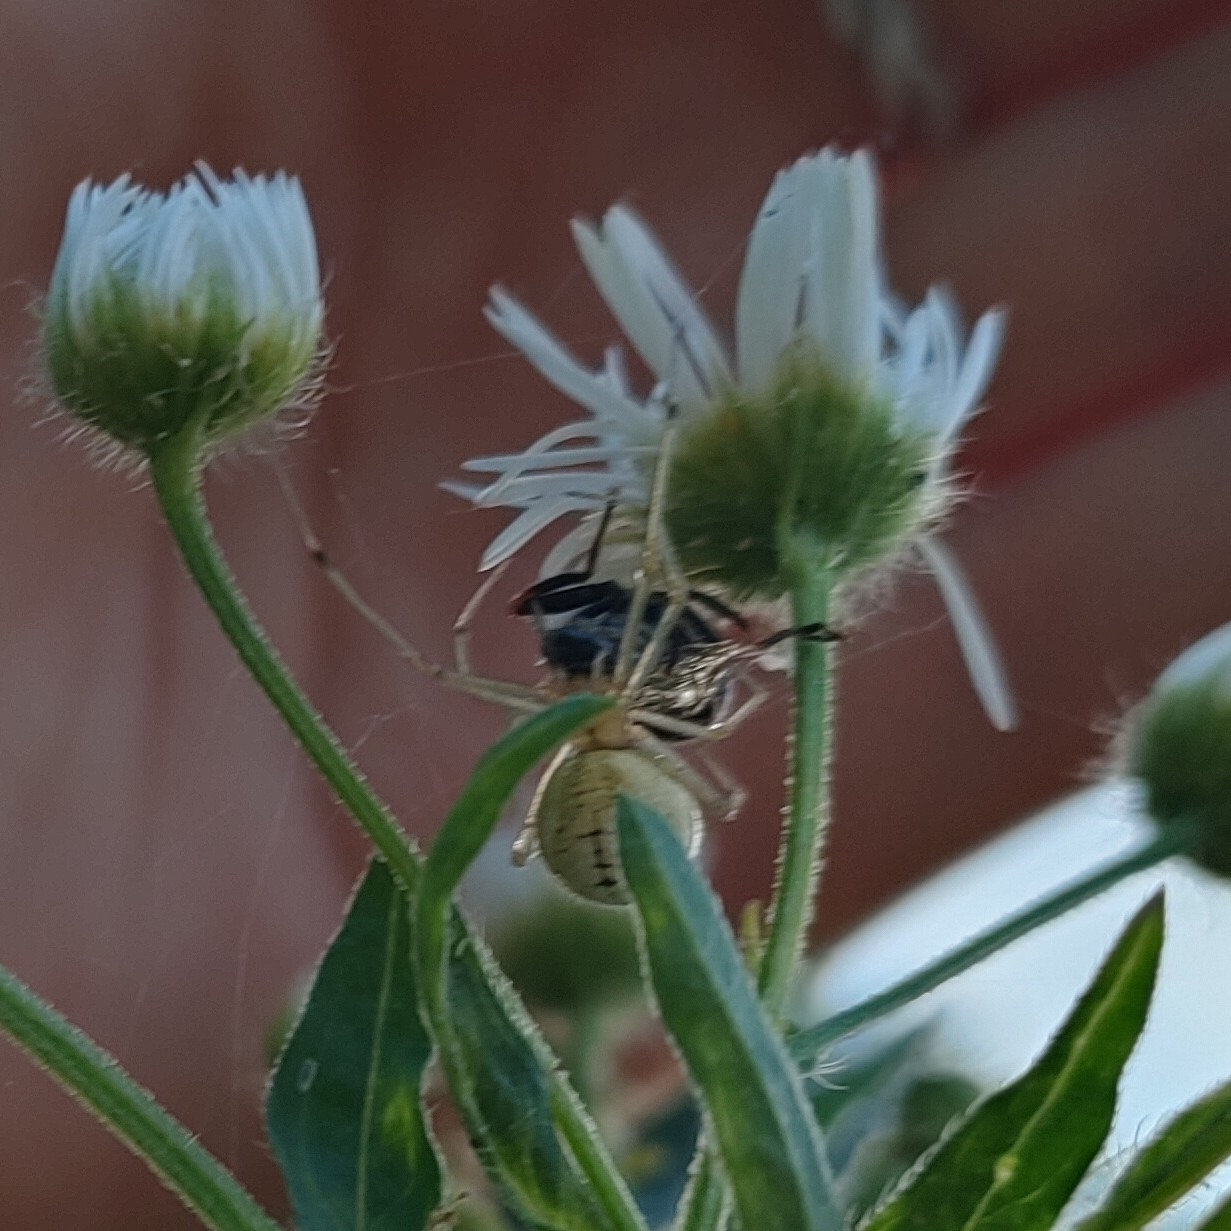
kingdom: Animalia
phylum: Arthropoda
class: Arachnida
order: Araneae
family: Theridiidae
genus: Enoplognatha
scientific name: Enoplognatha ovata
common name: Common candy-striped spider
